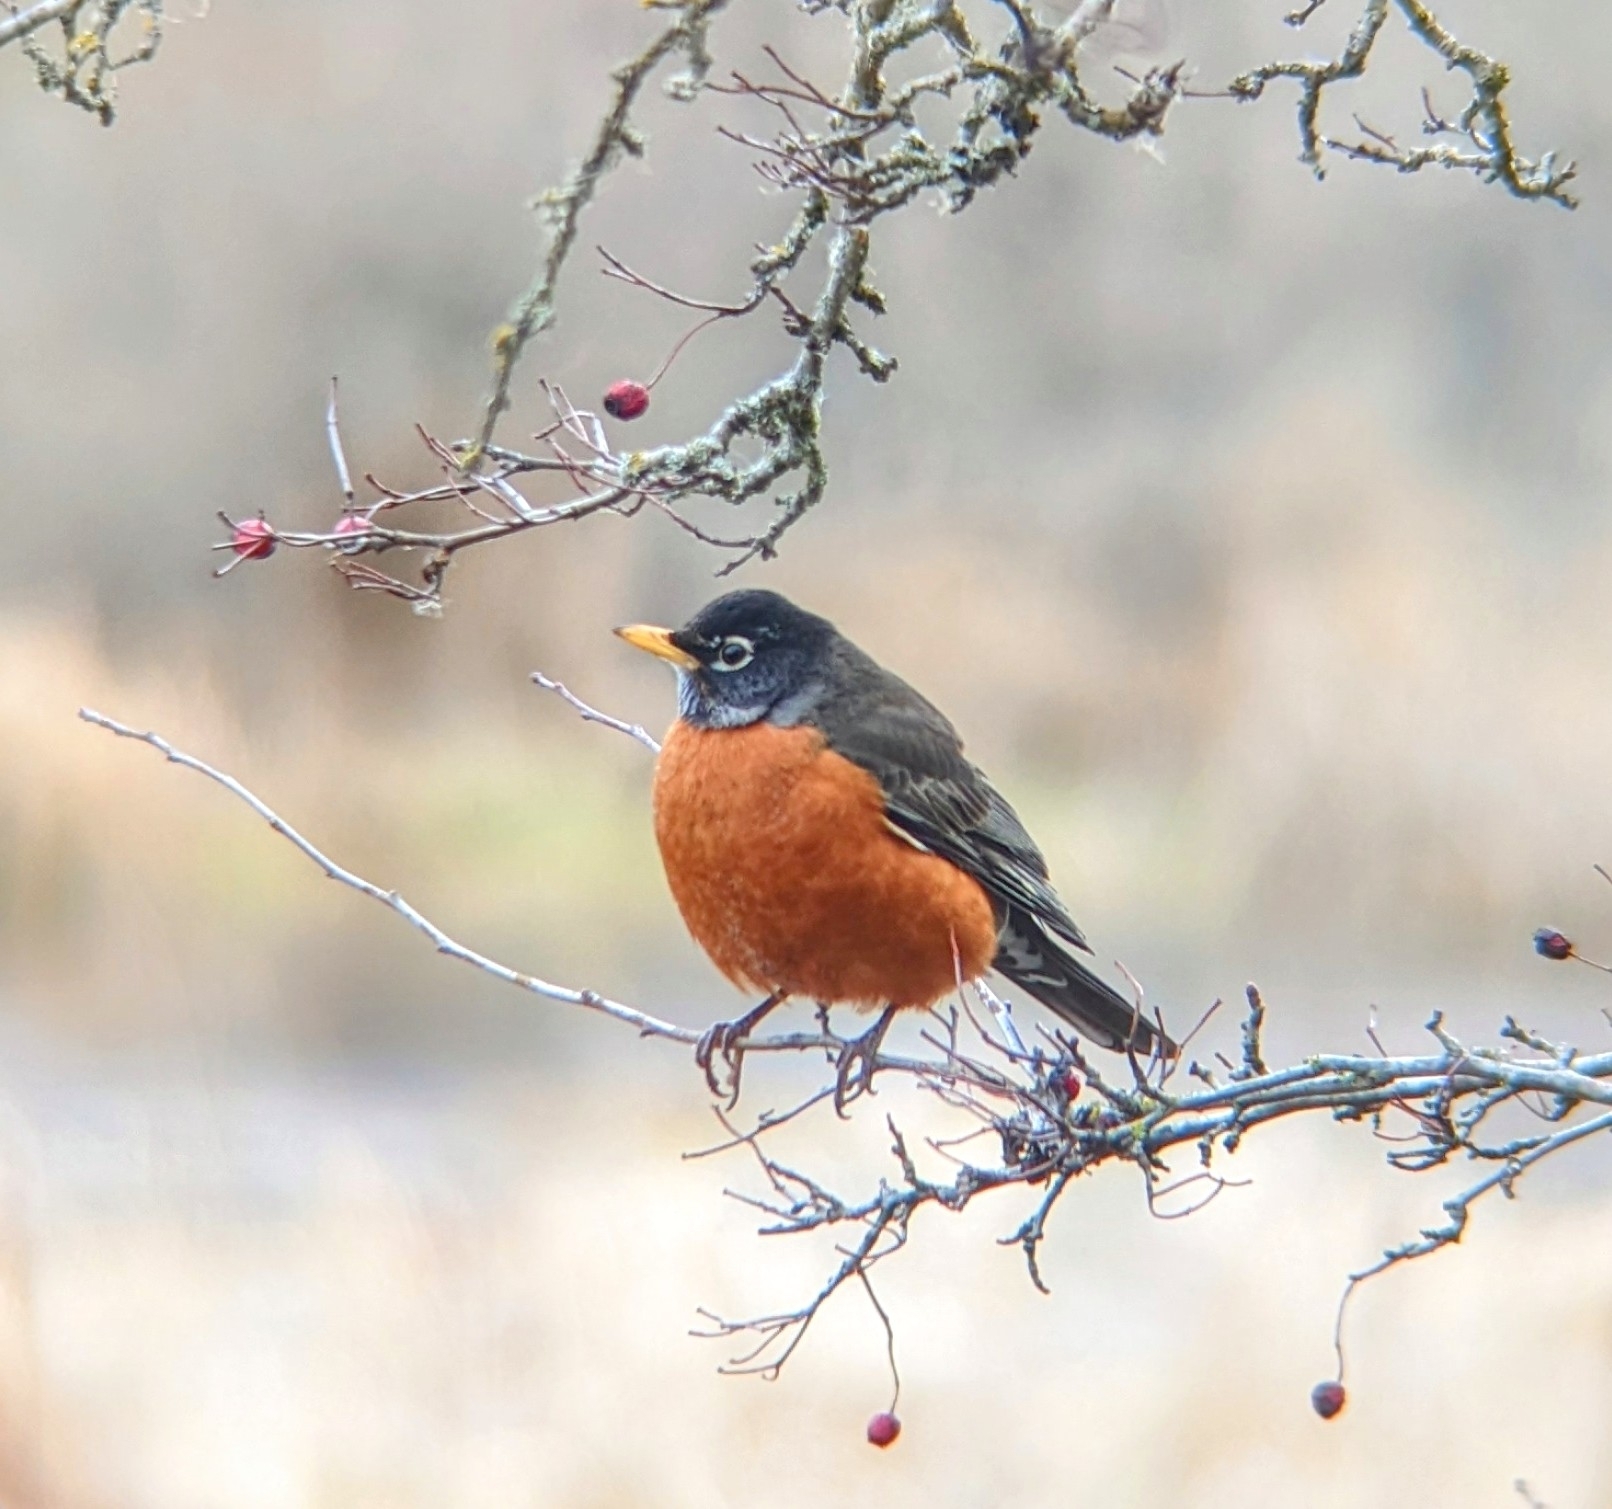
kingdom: Animalia
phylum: Chordata
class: Aves
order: Passeriformes
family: Turdidae
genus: Turdus
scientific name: Turdus migratorius
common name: American robin
